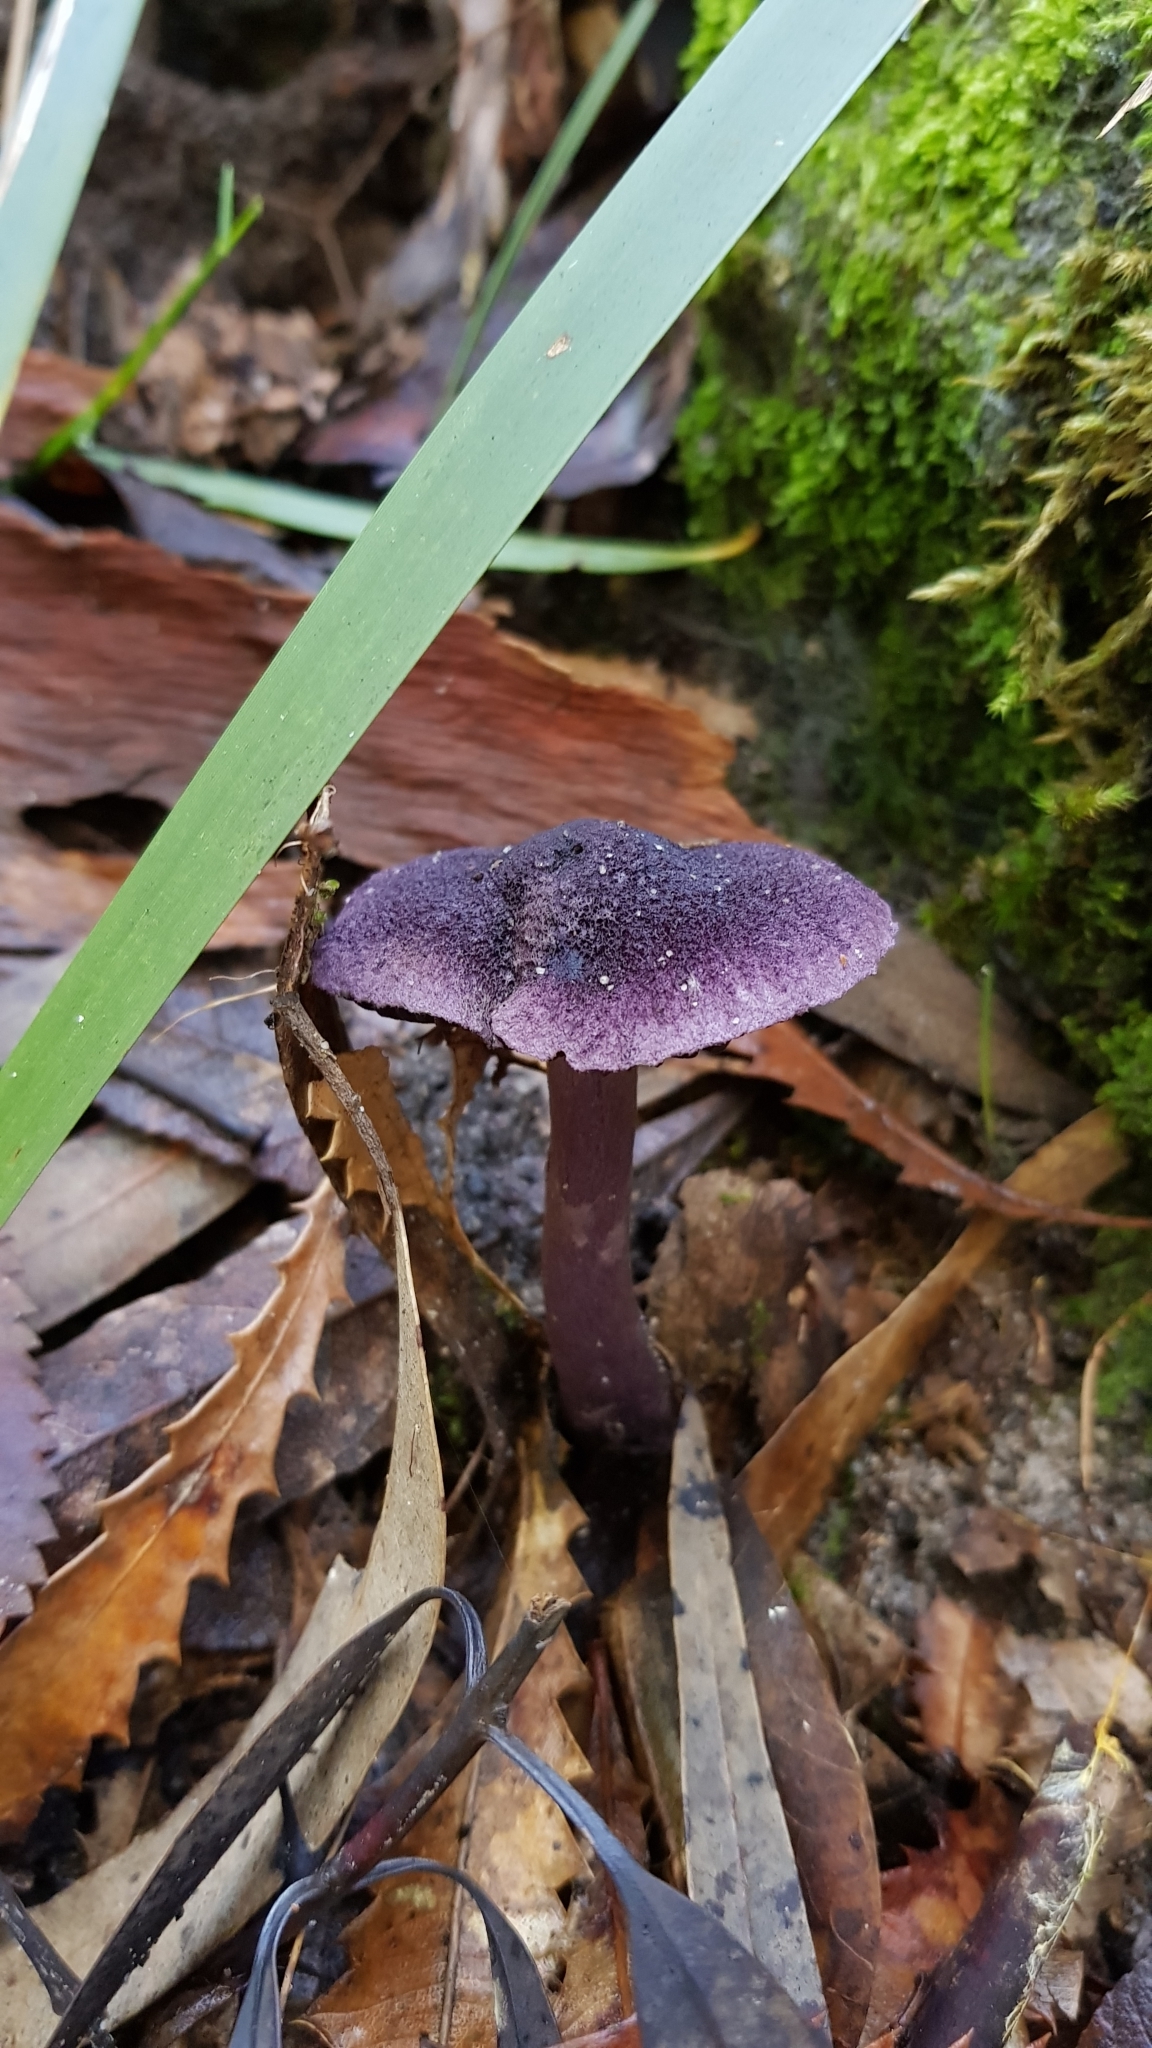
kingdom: Fungi
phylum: Basidiomycota
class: Agaricomycetes
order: Agaricales
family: Cortinariaceae
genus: Cortinarius
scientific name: Cortinarius kioloensis
